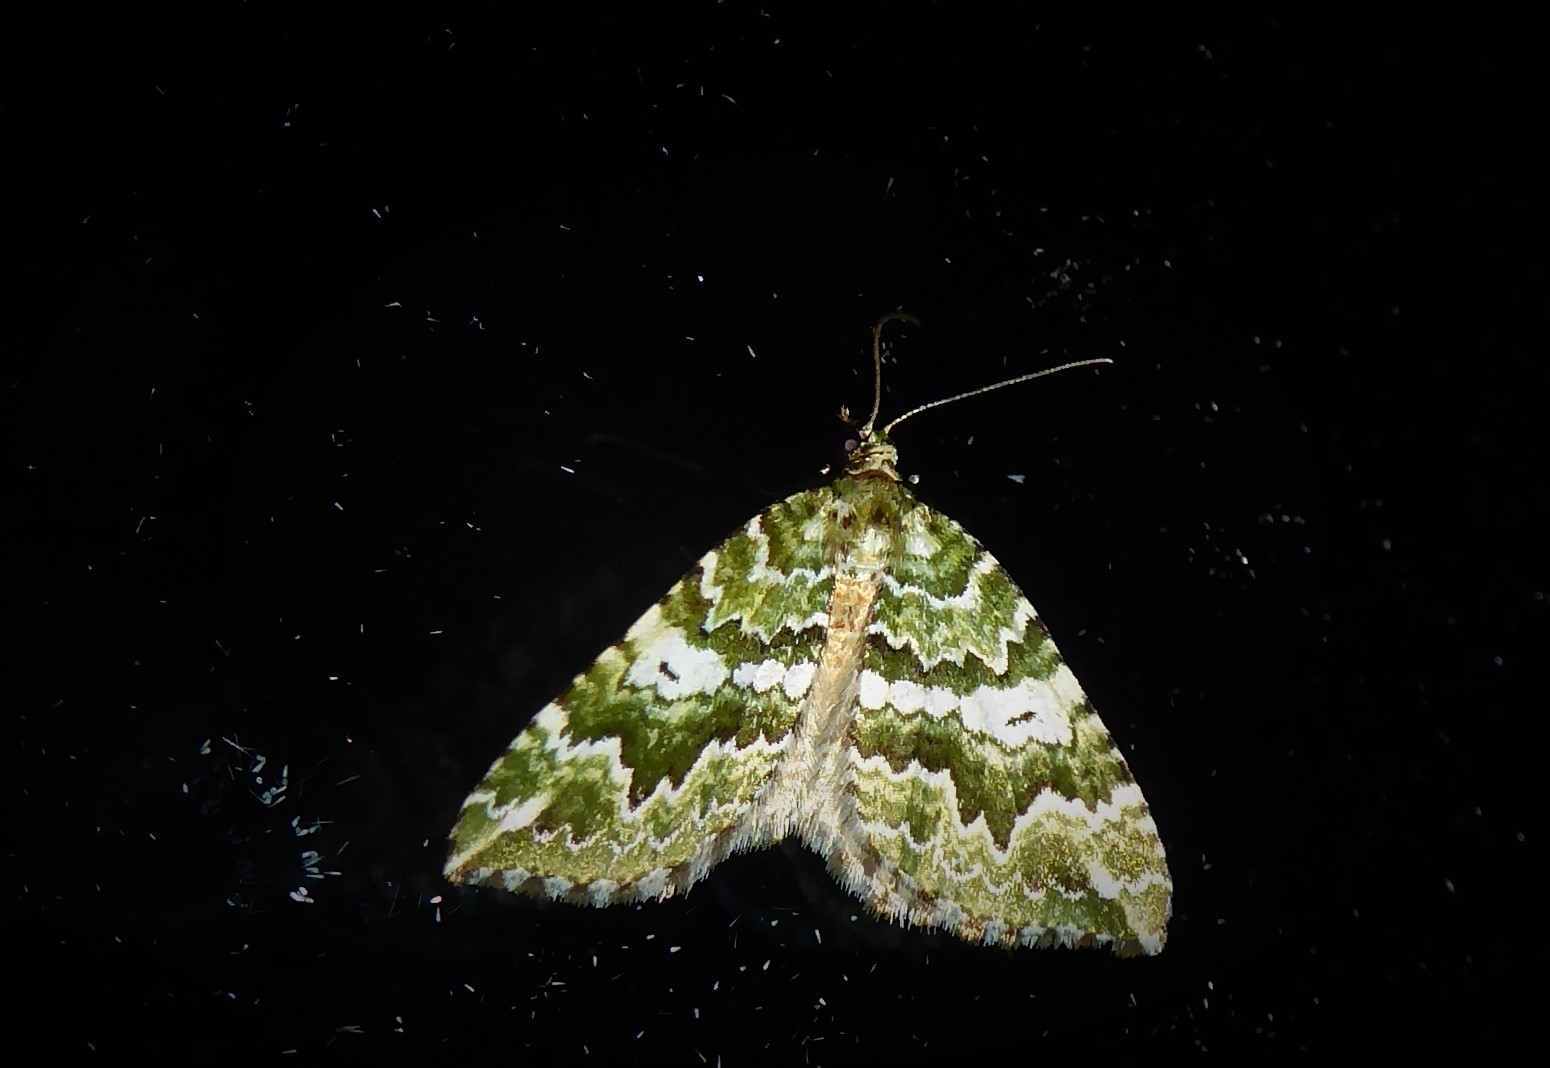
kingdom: Animalia
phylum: Arthropoda
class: Insecta
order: Lepidoptera
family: Geometridae
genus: Asaphodes
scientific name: Asaphodes beata
